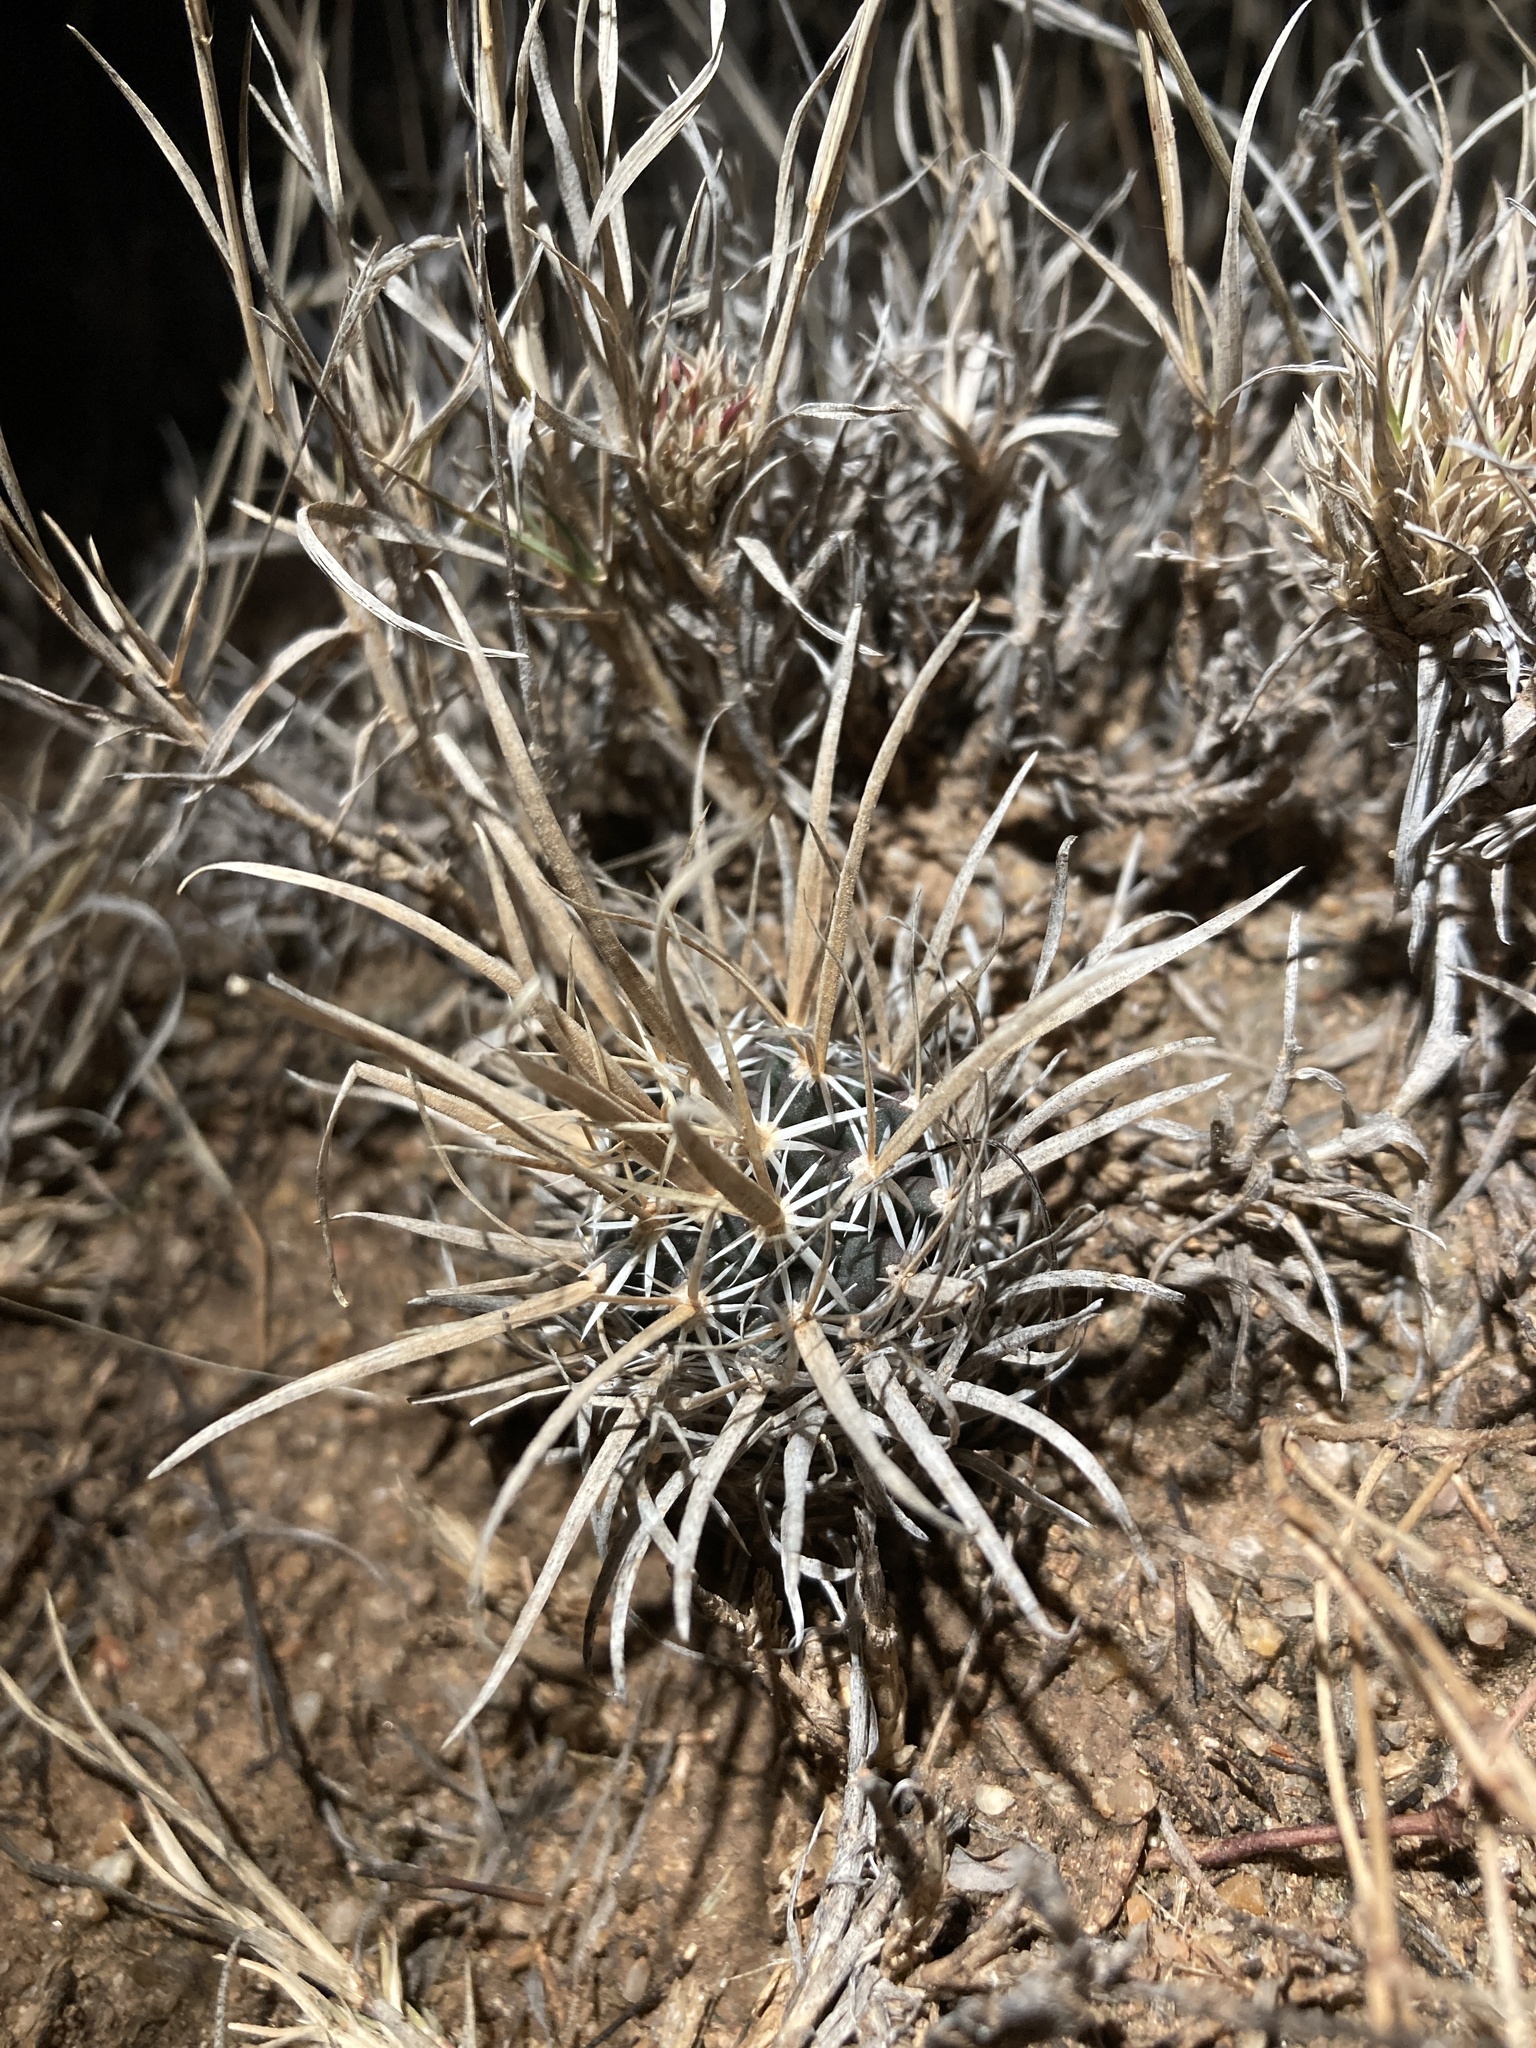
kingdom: Plantae
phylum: Tracheophyta
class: Magnoliopsida
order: Caryophyllales
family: Cactaceae
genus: Sclerocactus
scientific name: Sclerocactus papyracanthus
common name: Grama grass cactus
